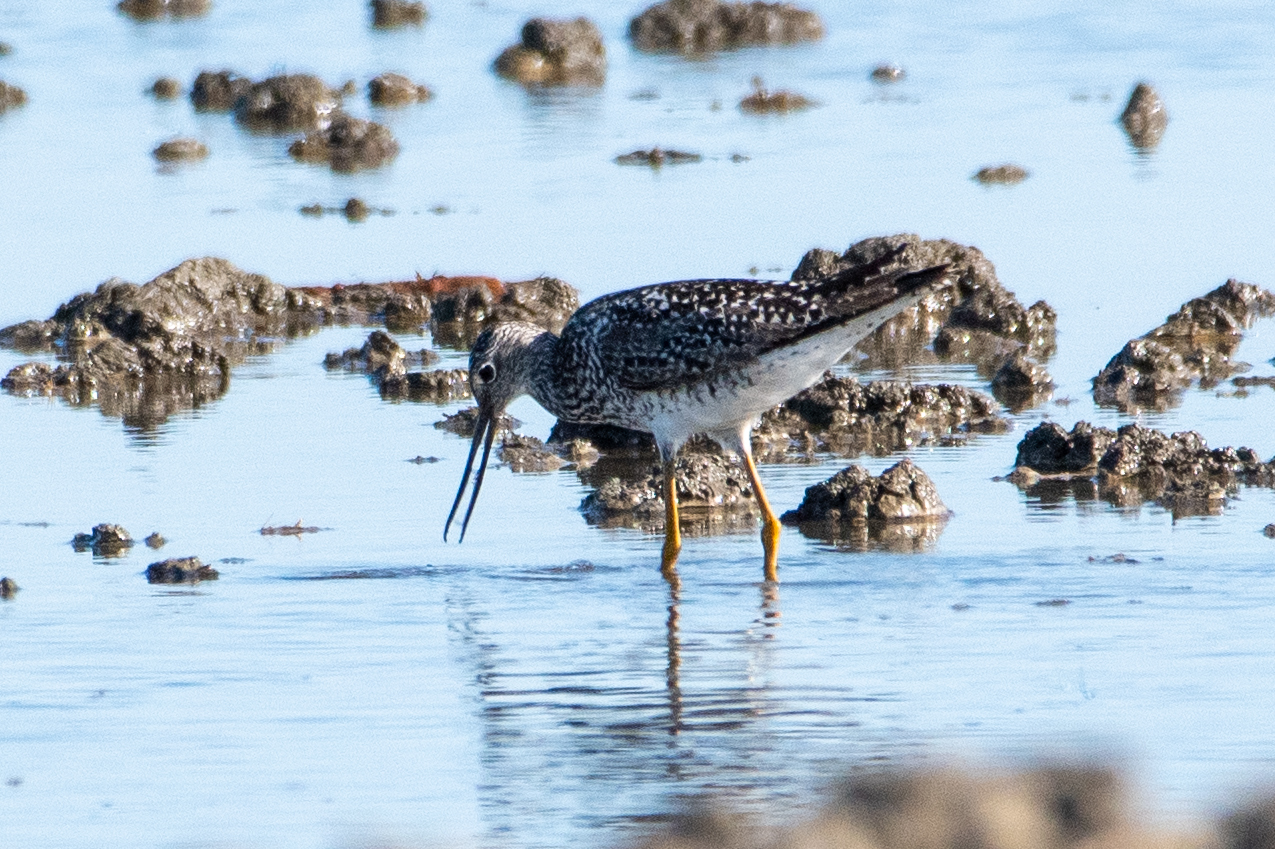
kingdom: Animalia
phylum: Chordata
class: Aves
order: Charadriiformes
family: Scolopacidae
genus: Tringa
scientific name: Tringa melanoleuca
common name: Greater yellowlegs
